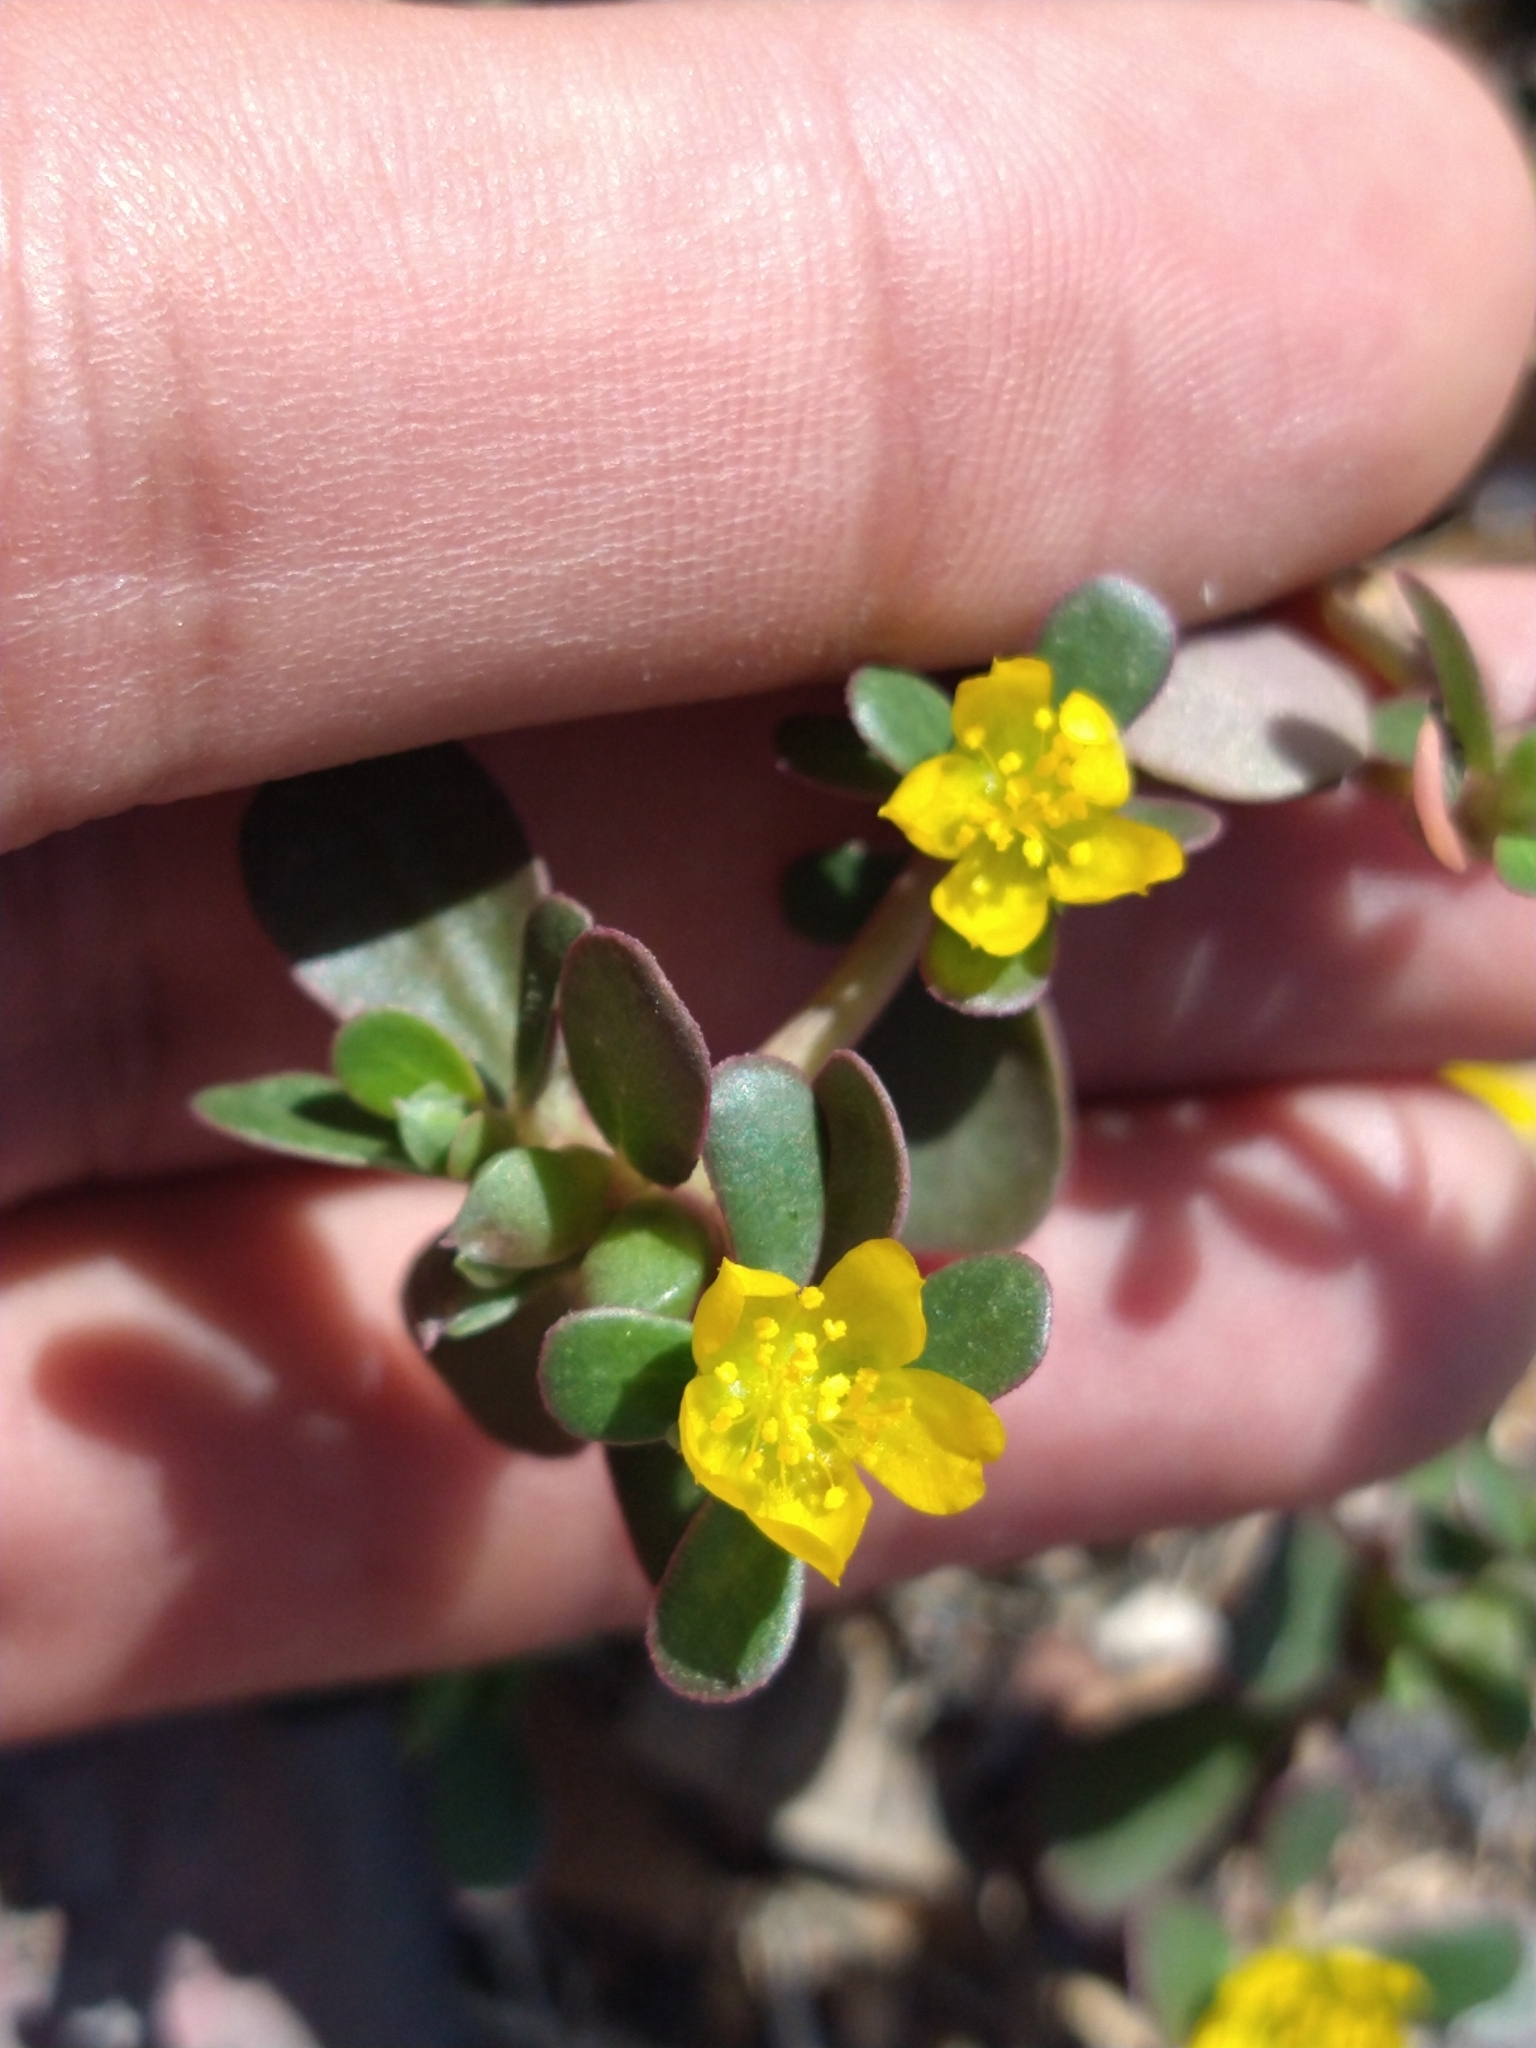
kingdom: Plantae
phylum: Tracheophyta
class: Magnoliopsida
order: Caryophyllales
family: Portulacaceae
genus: Portulaca
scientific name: Portulaca oleracea
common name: Common purslane
